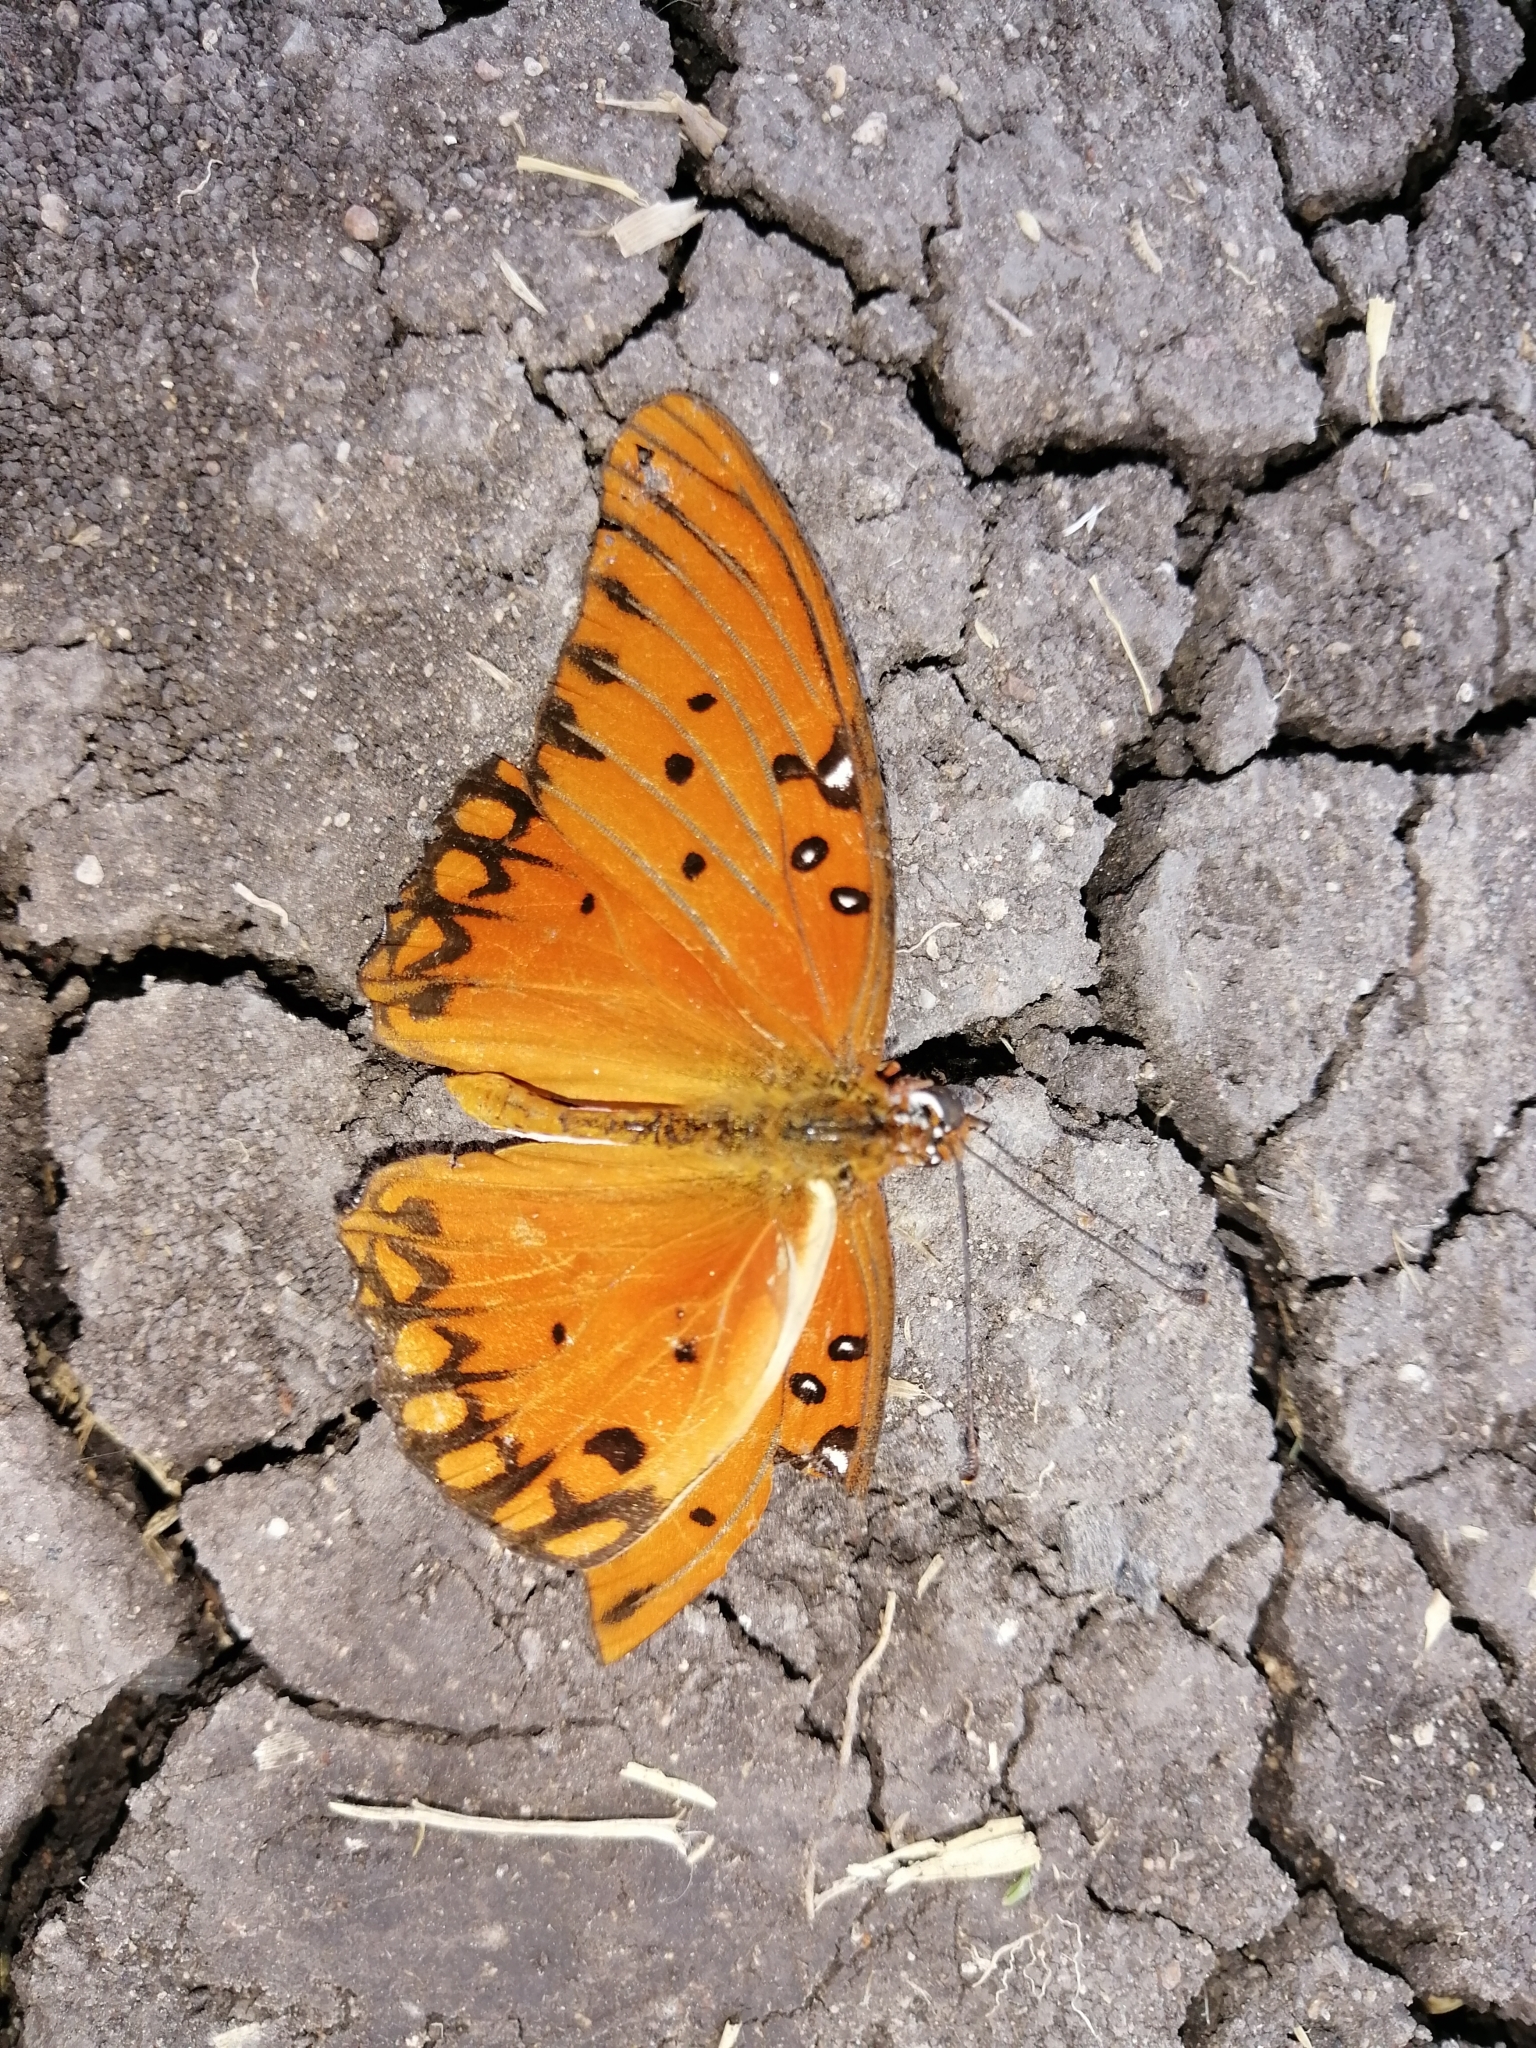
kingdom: Animalia
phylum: Arthropoda
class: Insecta
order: Lepidoptera
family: Nymphalidae
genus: Dione
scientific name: Dione vanillae
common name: Gulf fritillary
